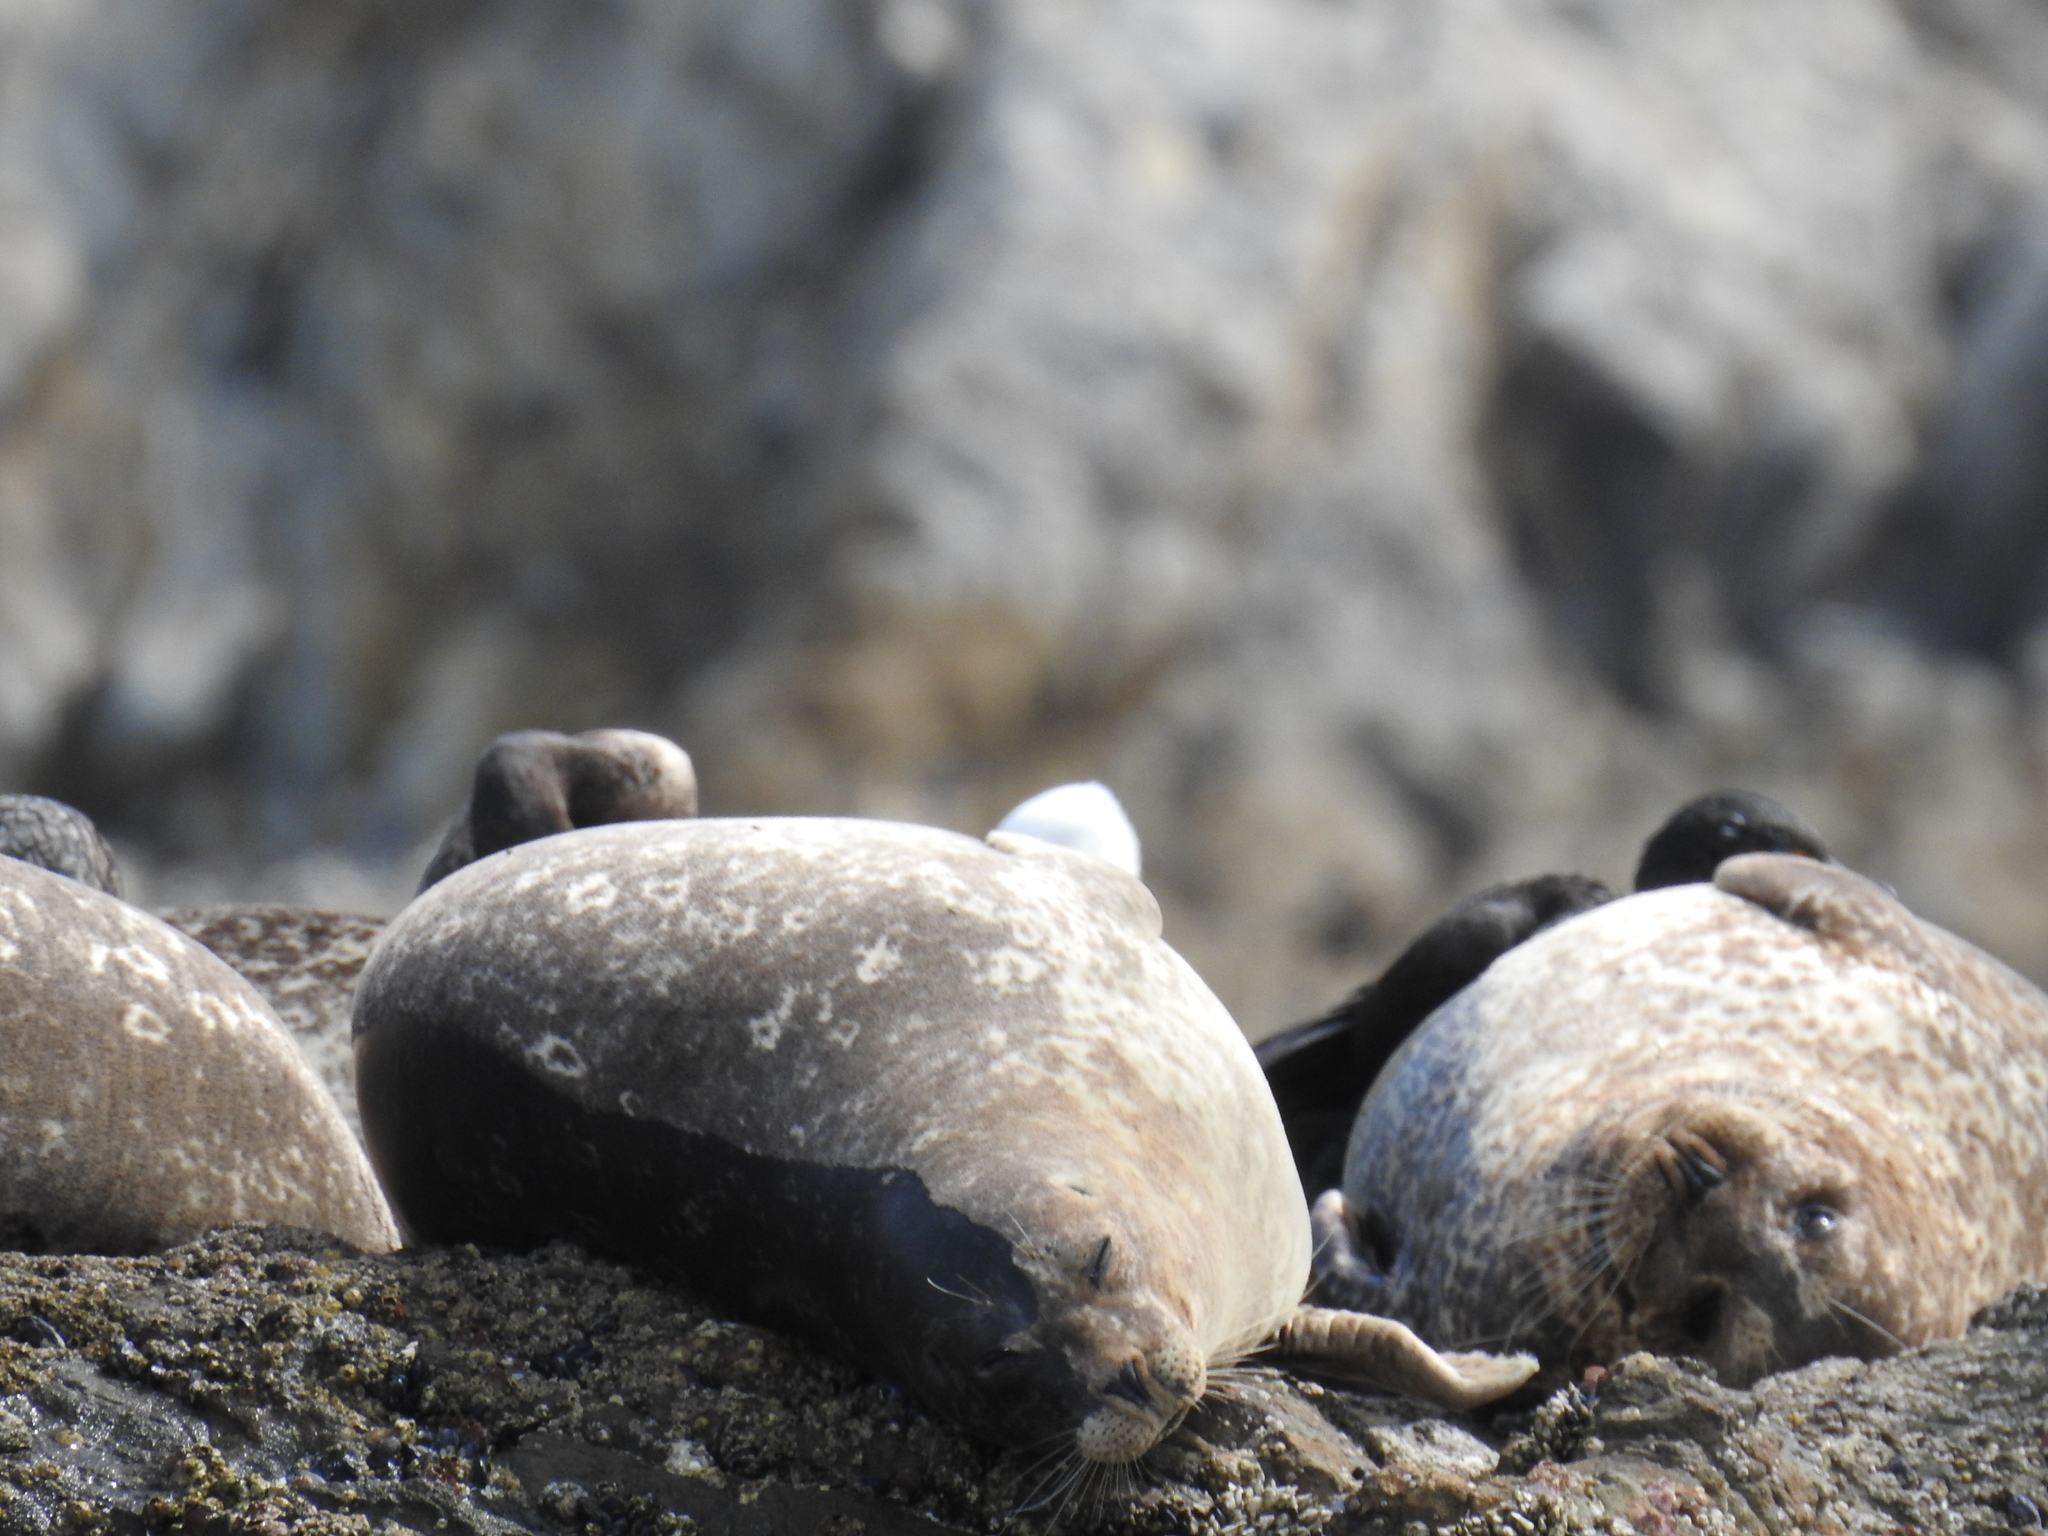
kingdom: Animalia
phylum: Chordata
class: Mammalia
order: Carnivora
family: Phocidae
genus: Phoca
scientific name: Phoca vitulina
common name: Harbor seal
